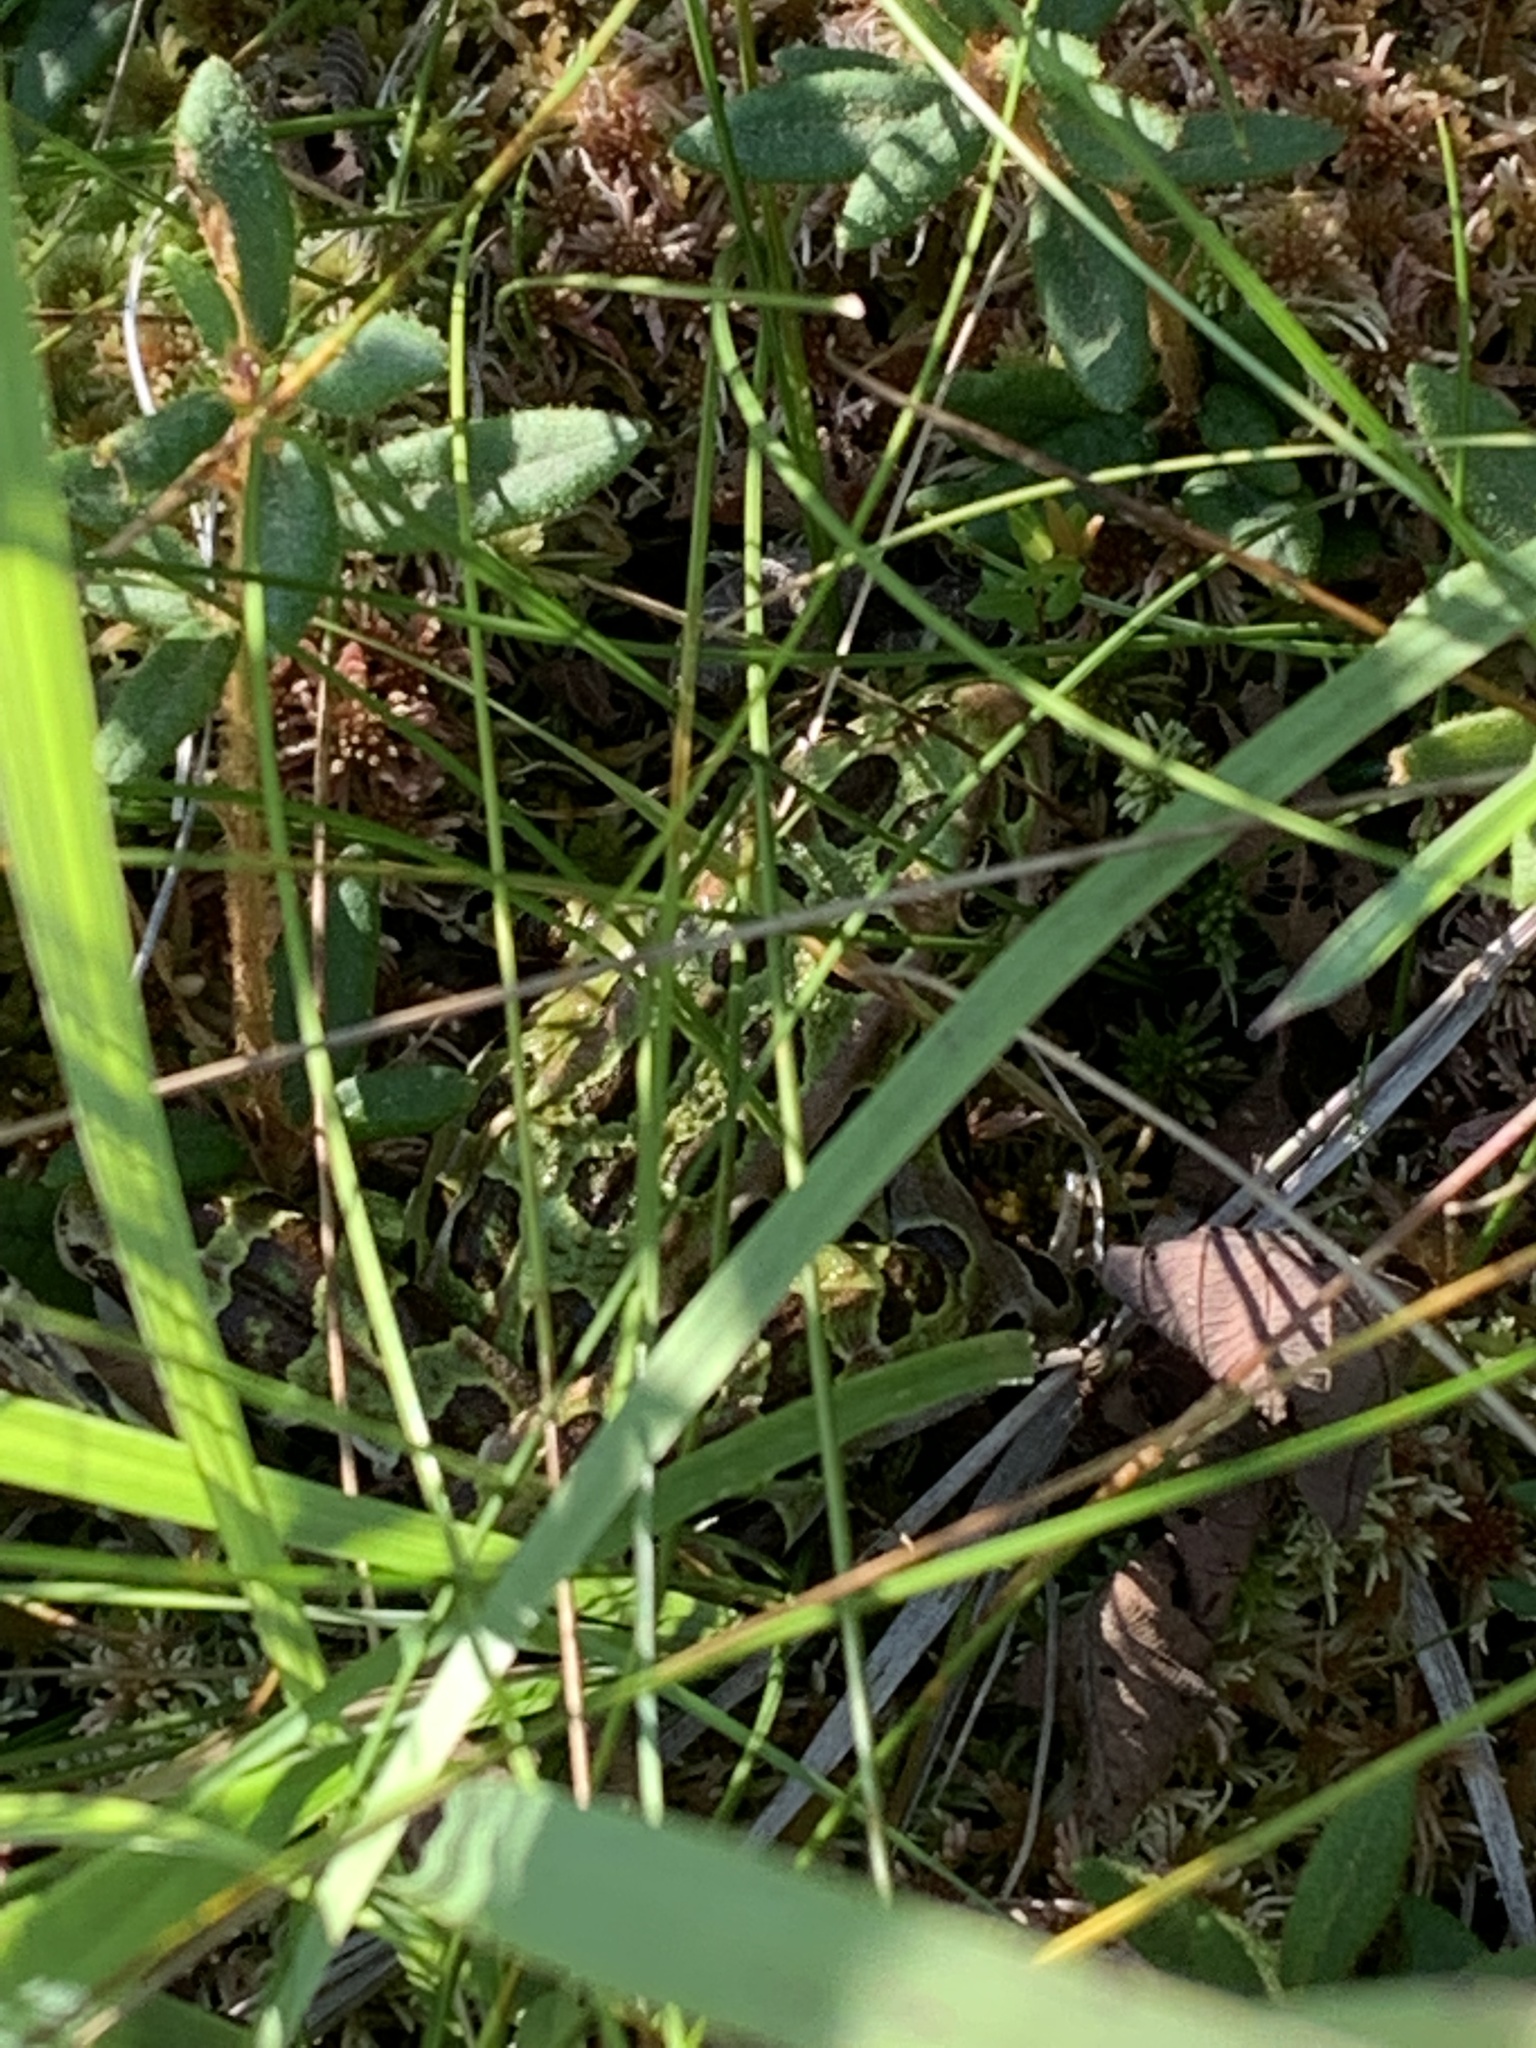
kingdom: Animalia
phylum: Chordata
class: Amphibia
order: Anura
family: Ranidae
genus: Lithobates
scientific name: Lithobates pipiens
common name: Northern leopard frog
